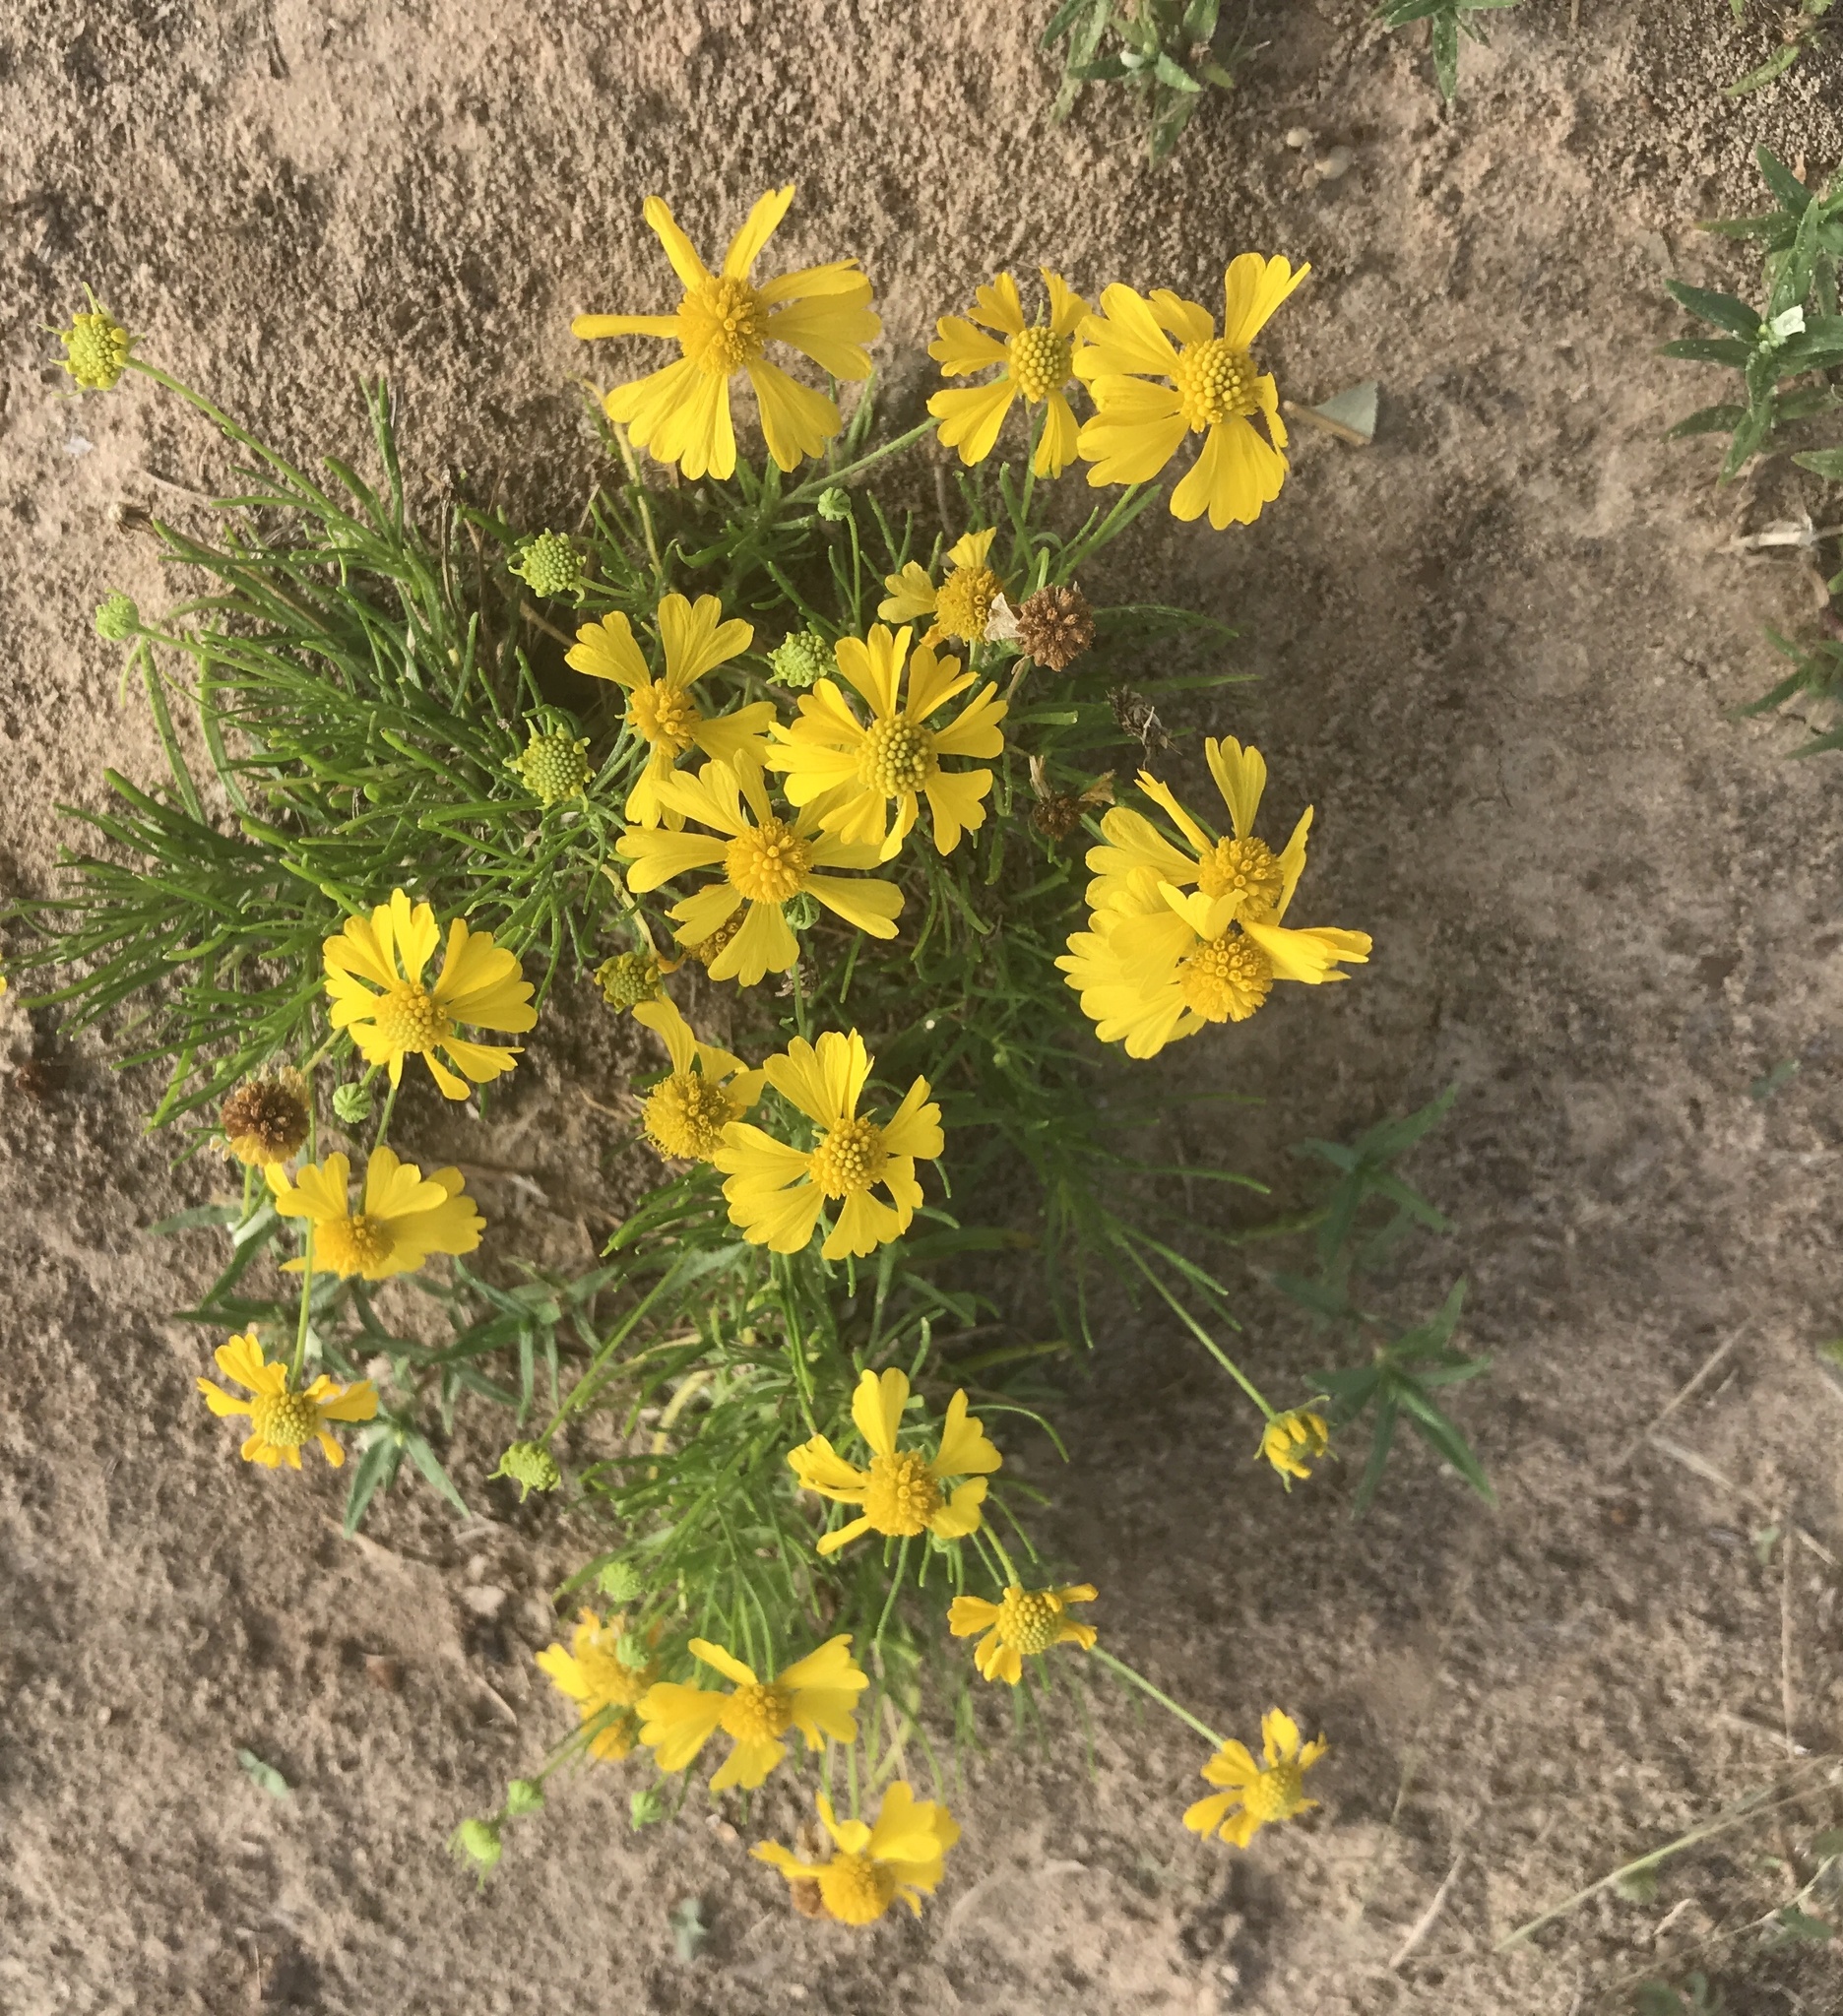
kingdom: Plantae
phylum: Tracheophyta
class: Magnoliopsida
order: Asterales
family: Asteraceae
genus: Helenium
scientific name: Helenium amarum
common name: Bitter sneezeweed
